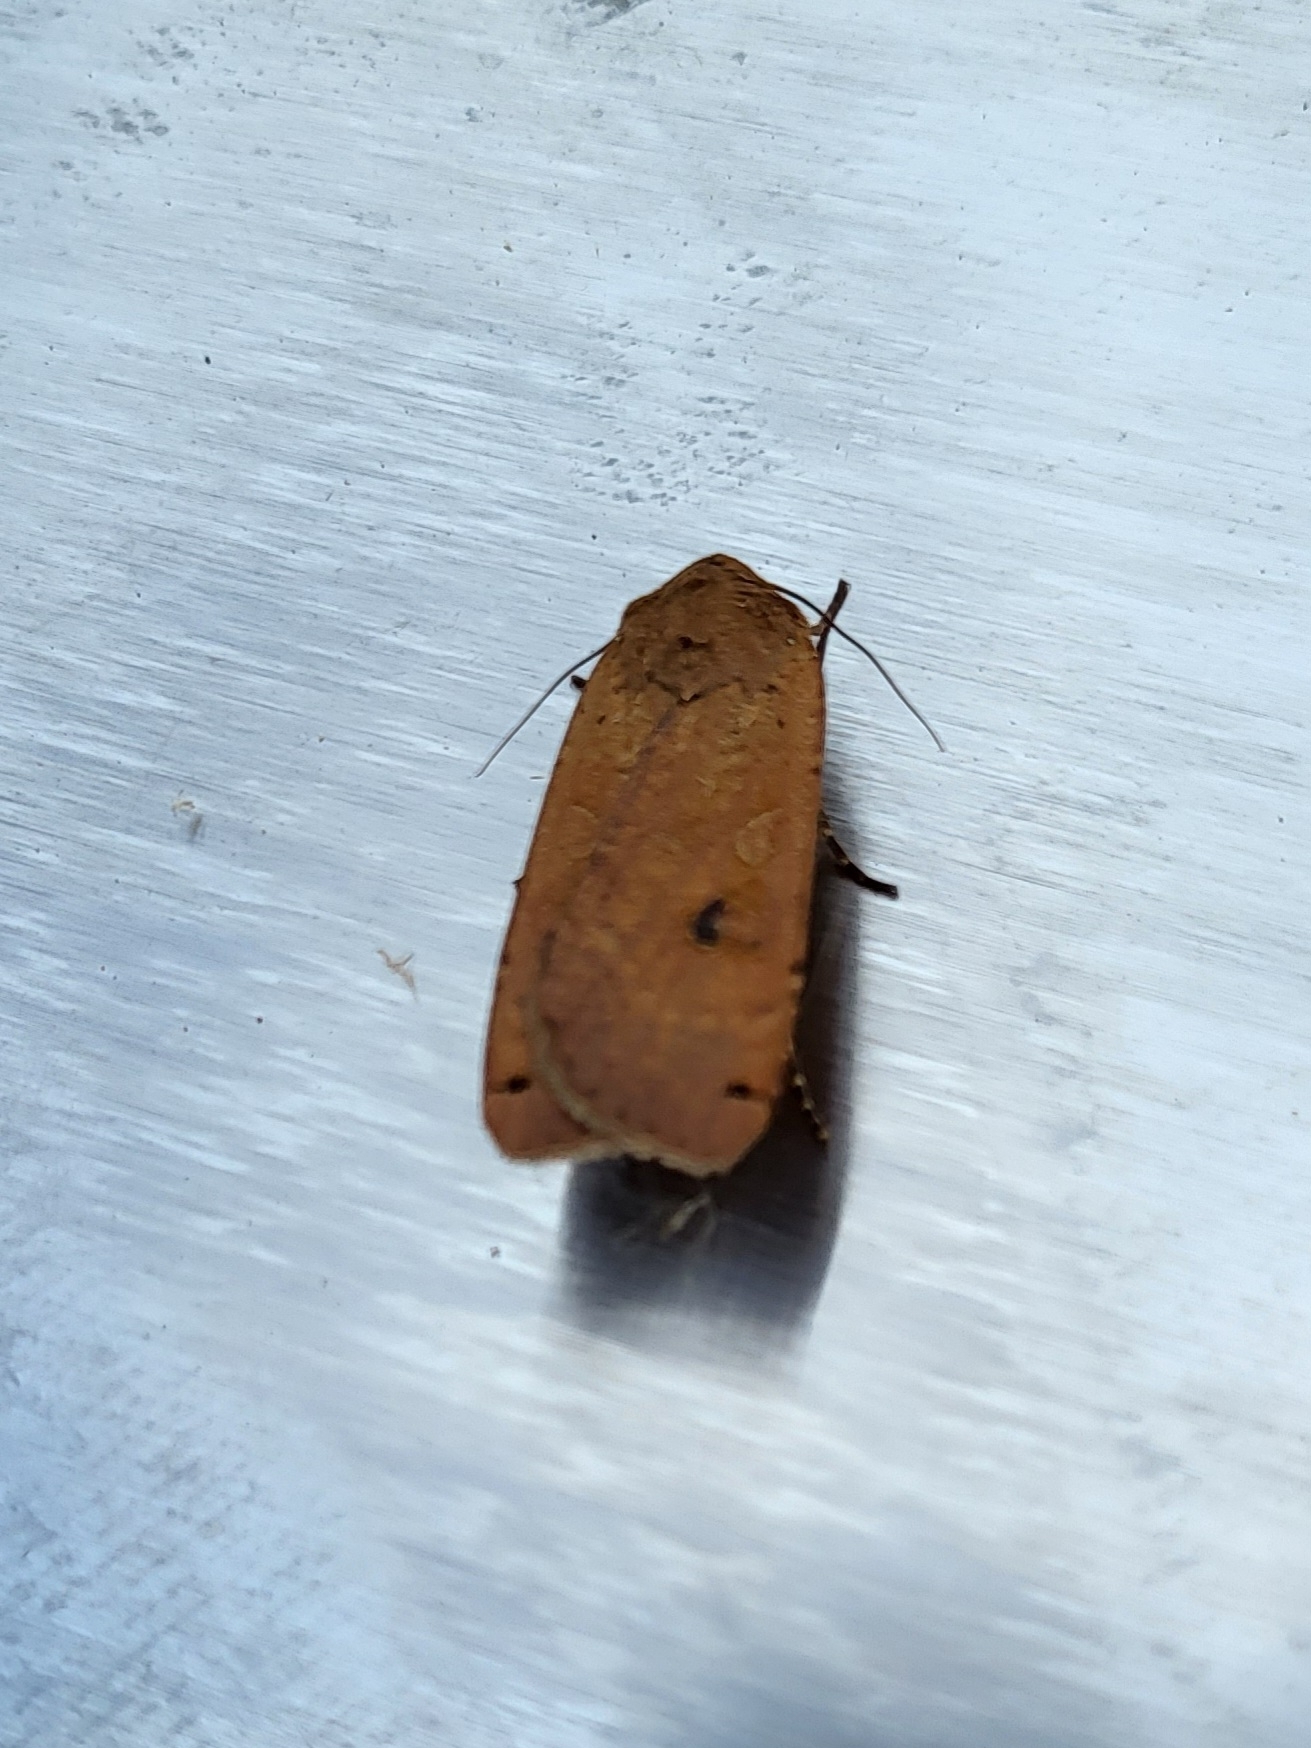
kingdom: Animalia
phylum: Arthropoda
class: Insecta
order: Lepidoptera
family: Noctuidae
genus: Noctua
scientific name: Noctua pronuba
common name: Large yellow underwing
